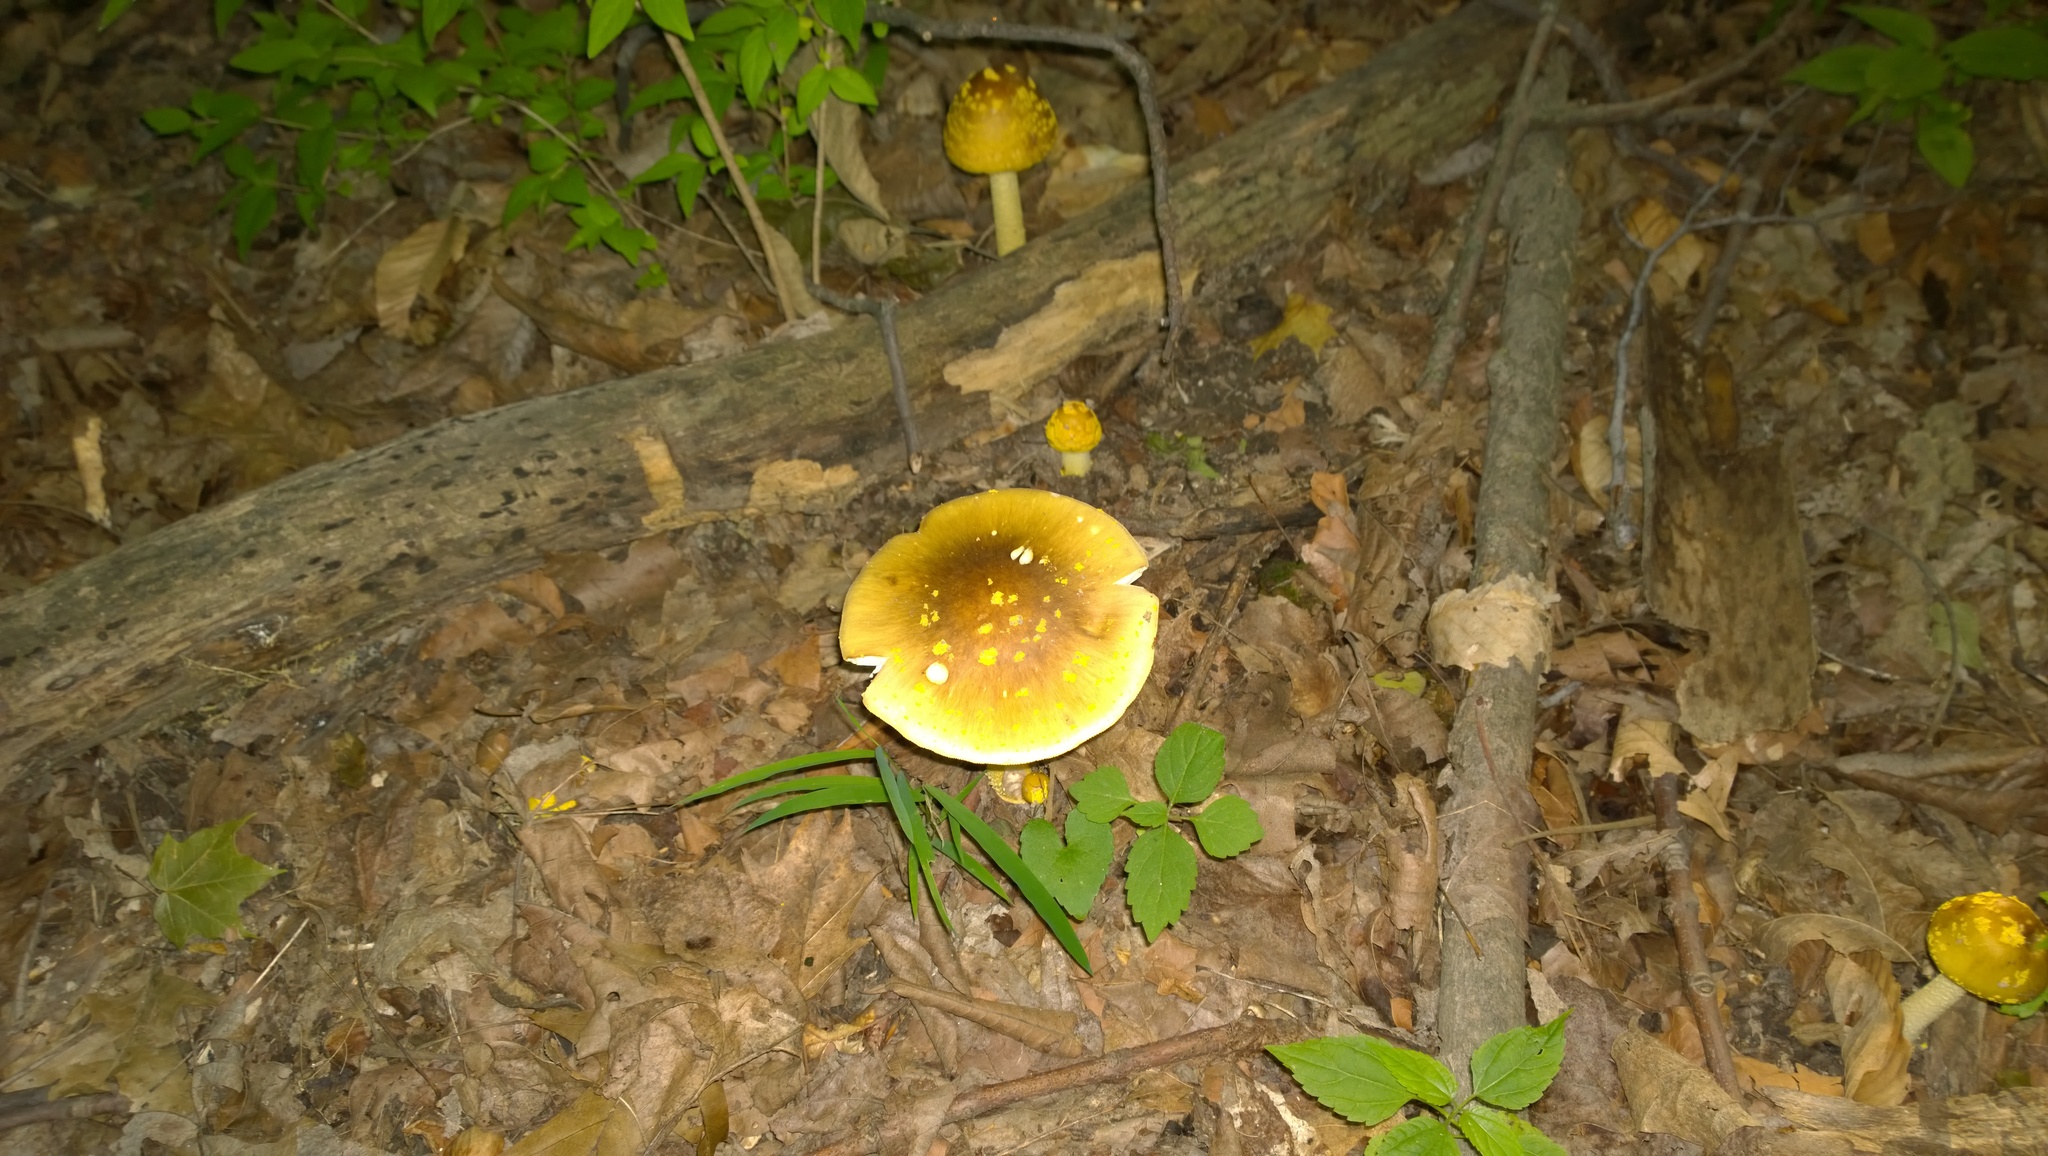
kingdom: Fungi
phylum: Basidiomycota
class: Agaricomycetes
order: Agaricales
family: Amanitaceae
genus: Amanita
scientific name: Amanita flavorubens
